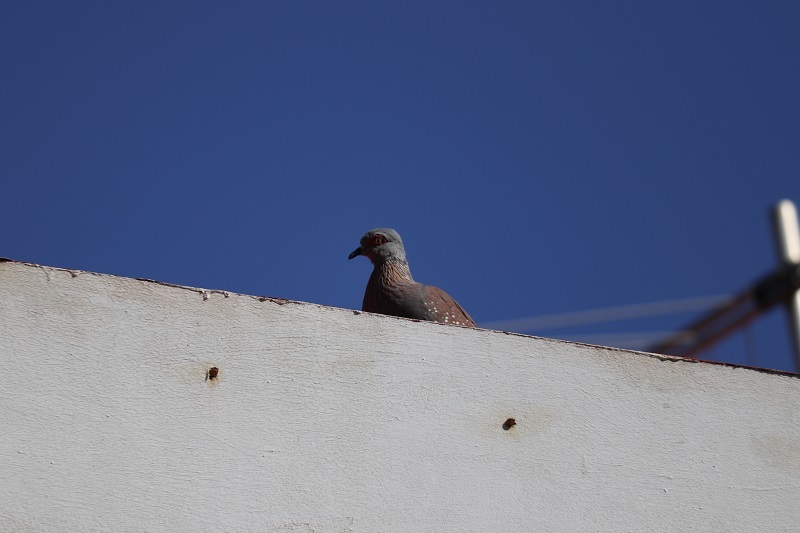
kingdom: Animalia
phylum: Chordata
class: Aves
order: Columbiformes
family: Columbidae
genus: Columba
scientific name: Columba guinea
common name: Speckled pigeon
